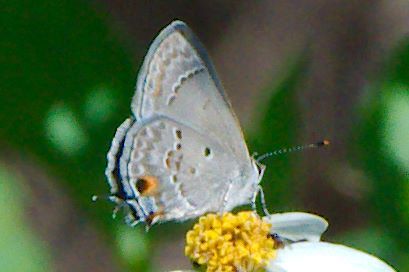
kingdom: Animalia
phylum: Arthropoda
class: Insecta
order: Lepidoptera
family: Lycaenidae
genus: Callicista
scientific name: Callicista columella
